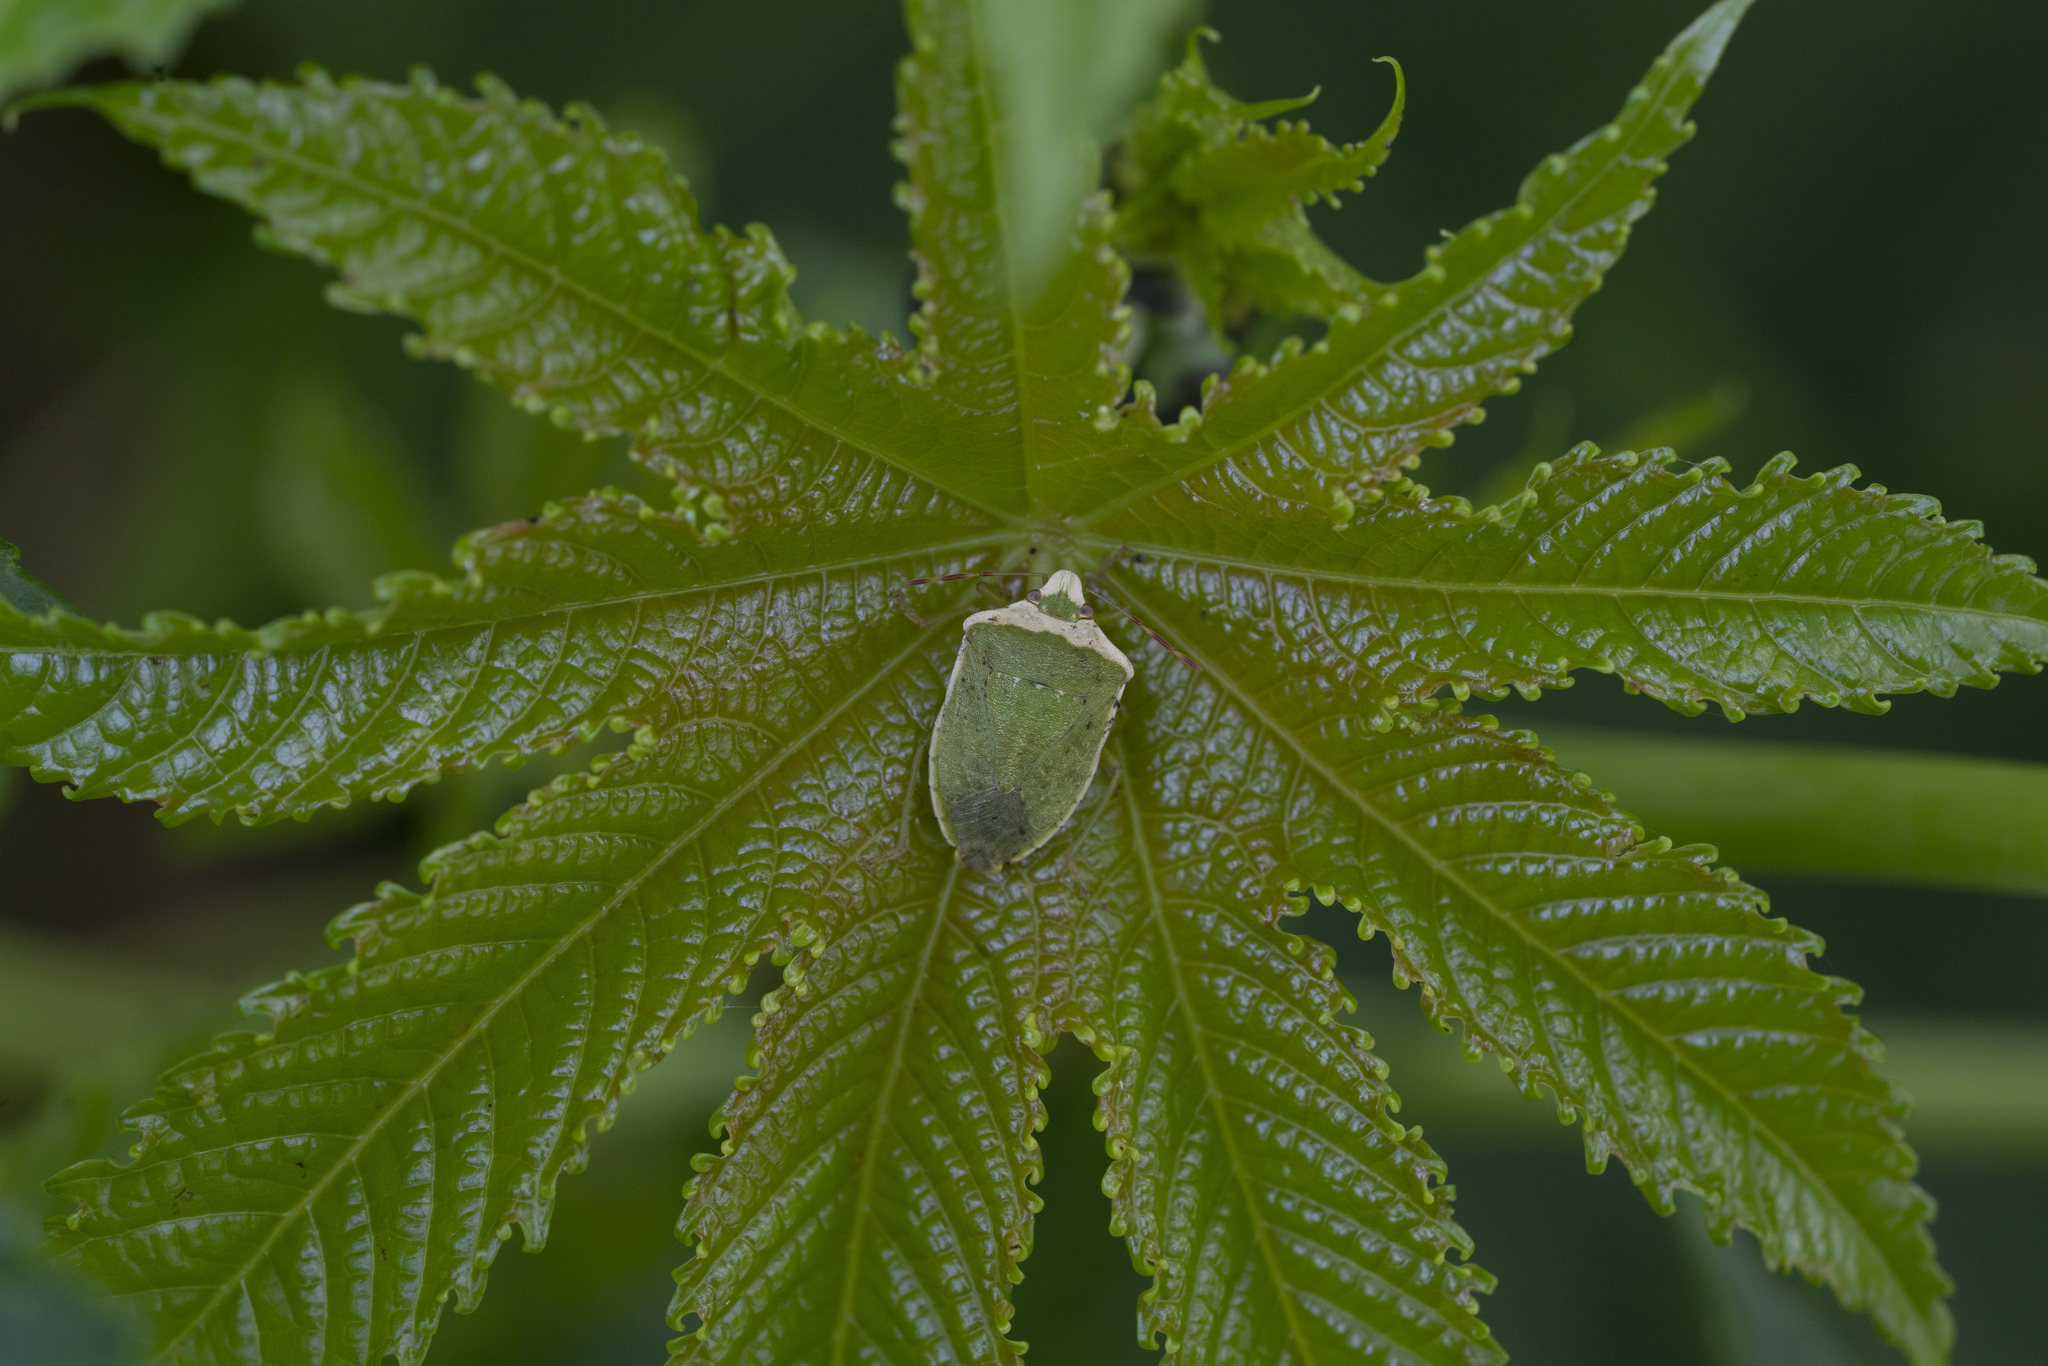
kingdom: Animalia
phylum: Arthropoda
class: Insecta
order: Hemiptera
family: Pentatomidae
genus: Nezara
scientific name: Nezara viridula
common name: Southern green stink bug
